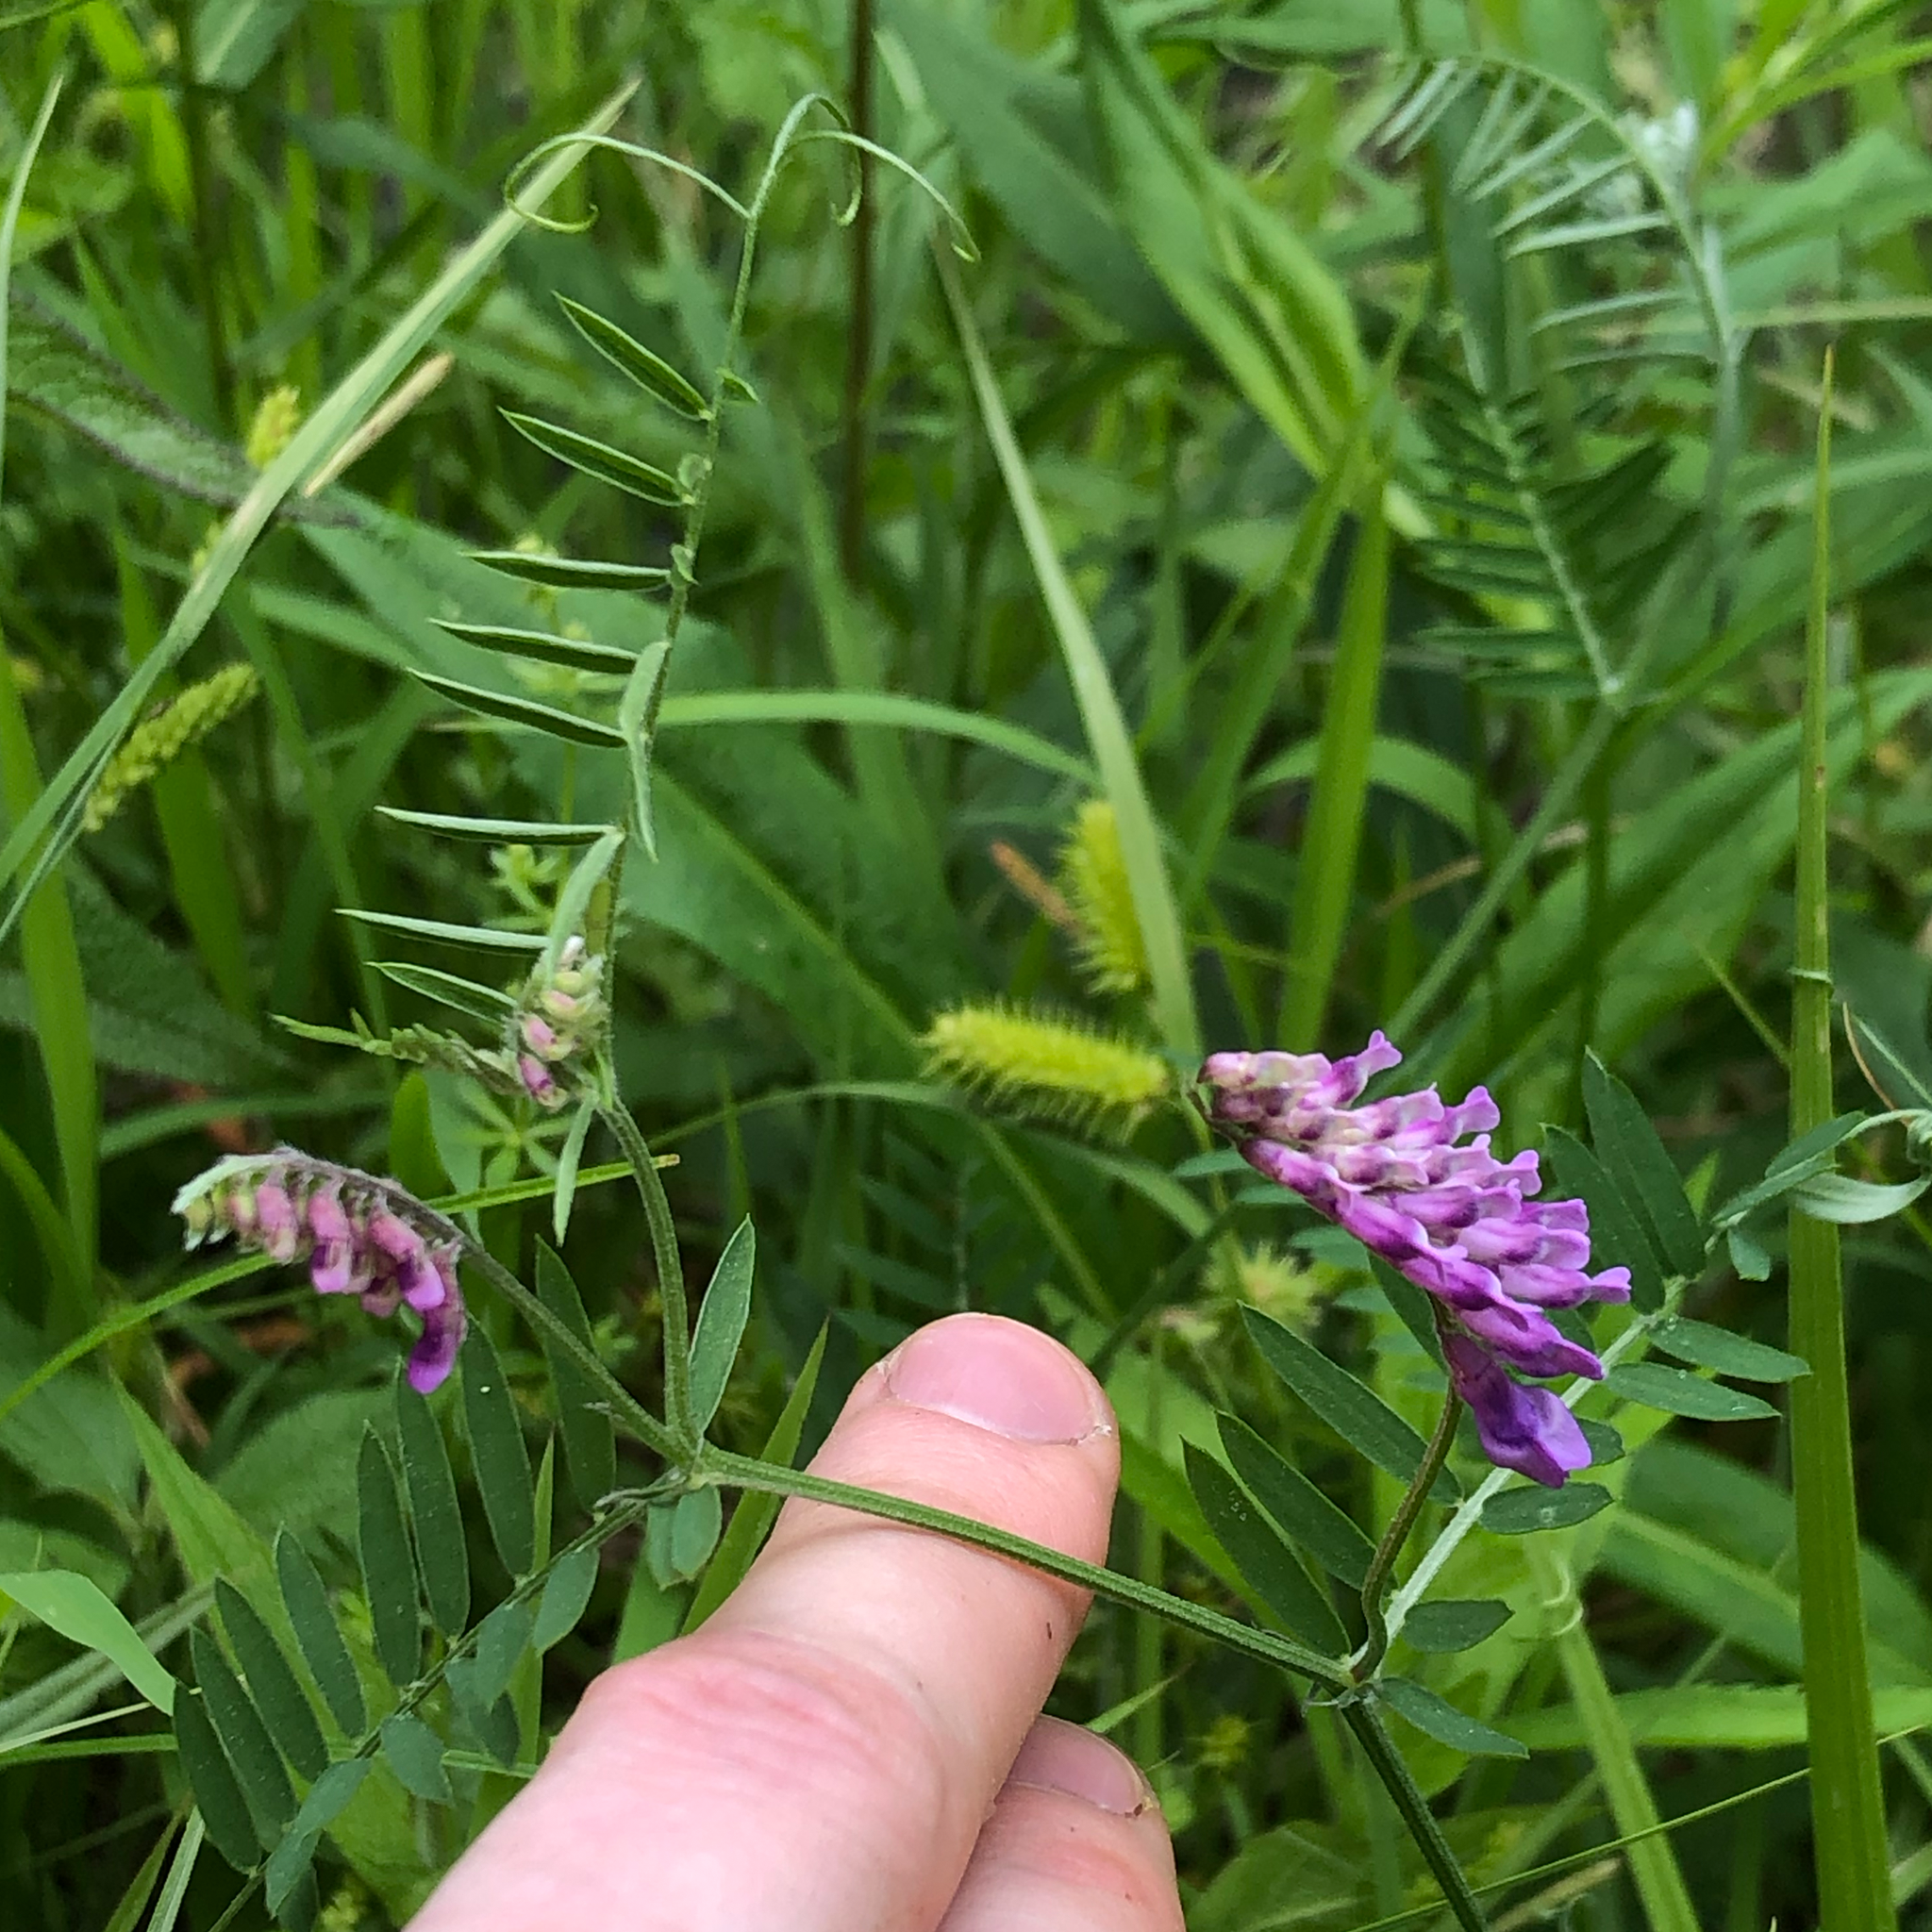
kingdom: Plantae
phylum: Tracheophyta
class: Magnoliopsida
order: Fabales
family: Fabaceae
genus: Vicia
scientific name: Vicia cracca
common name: Bird vetch
